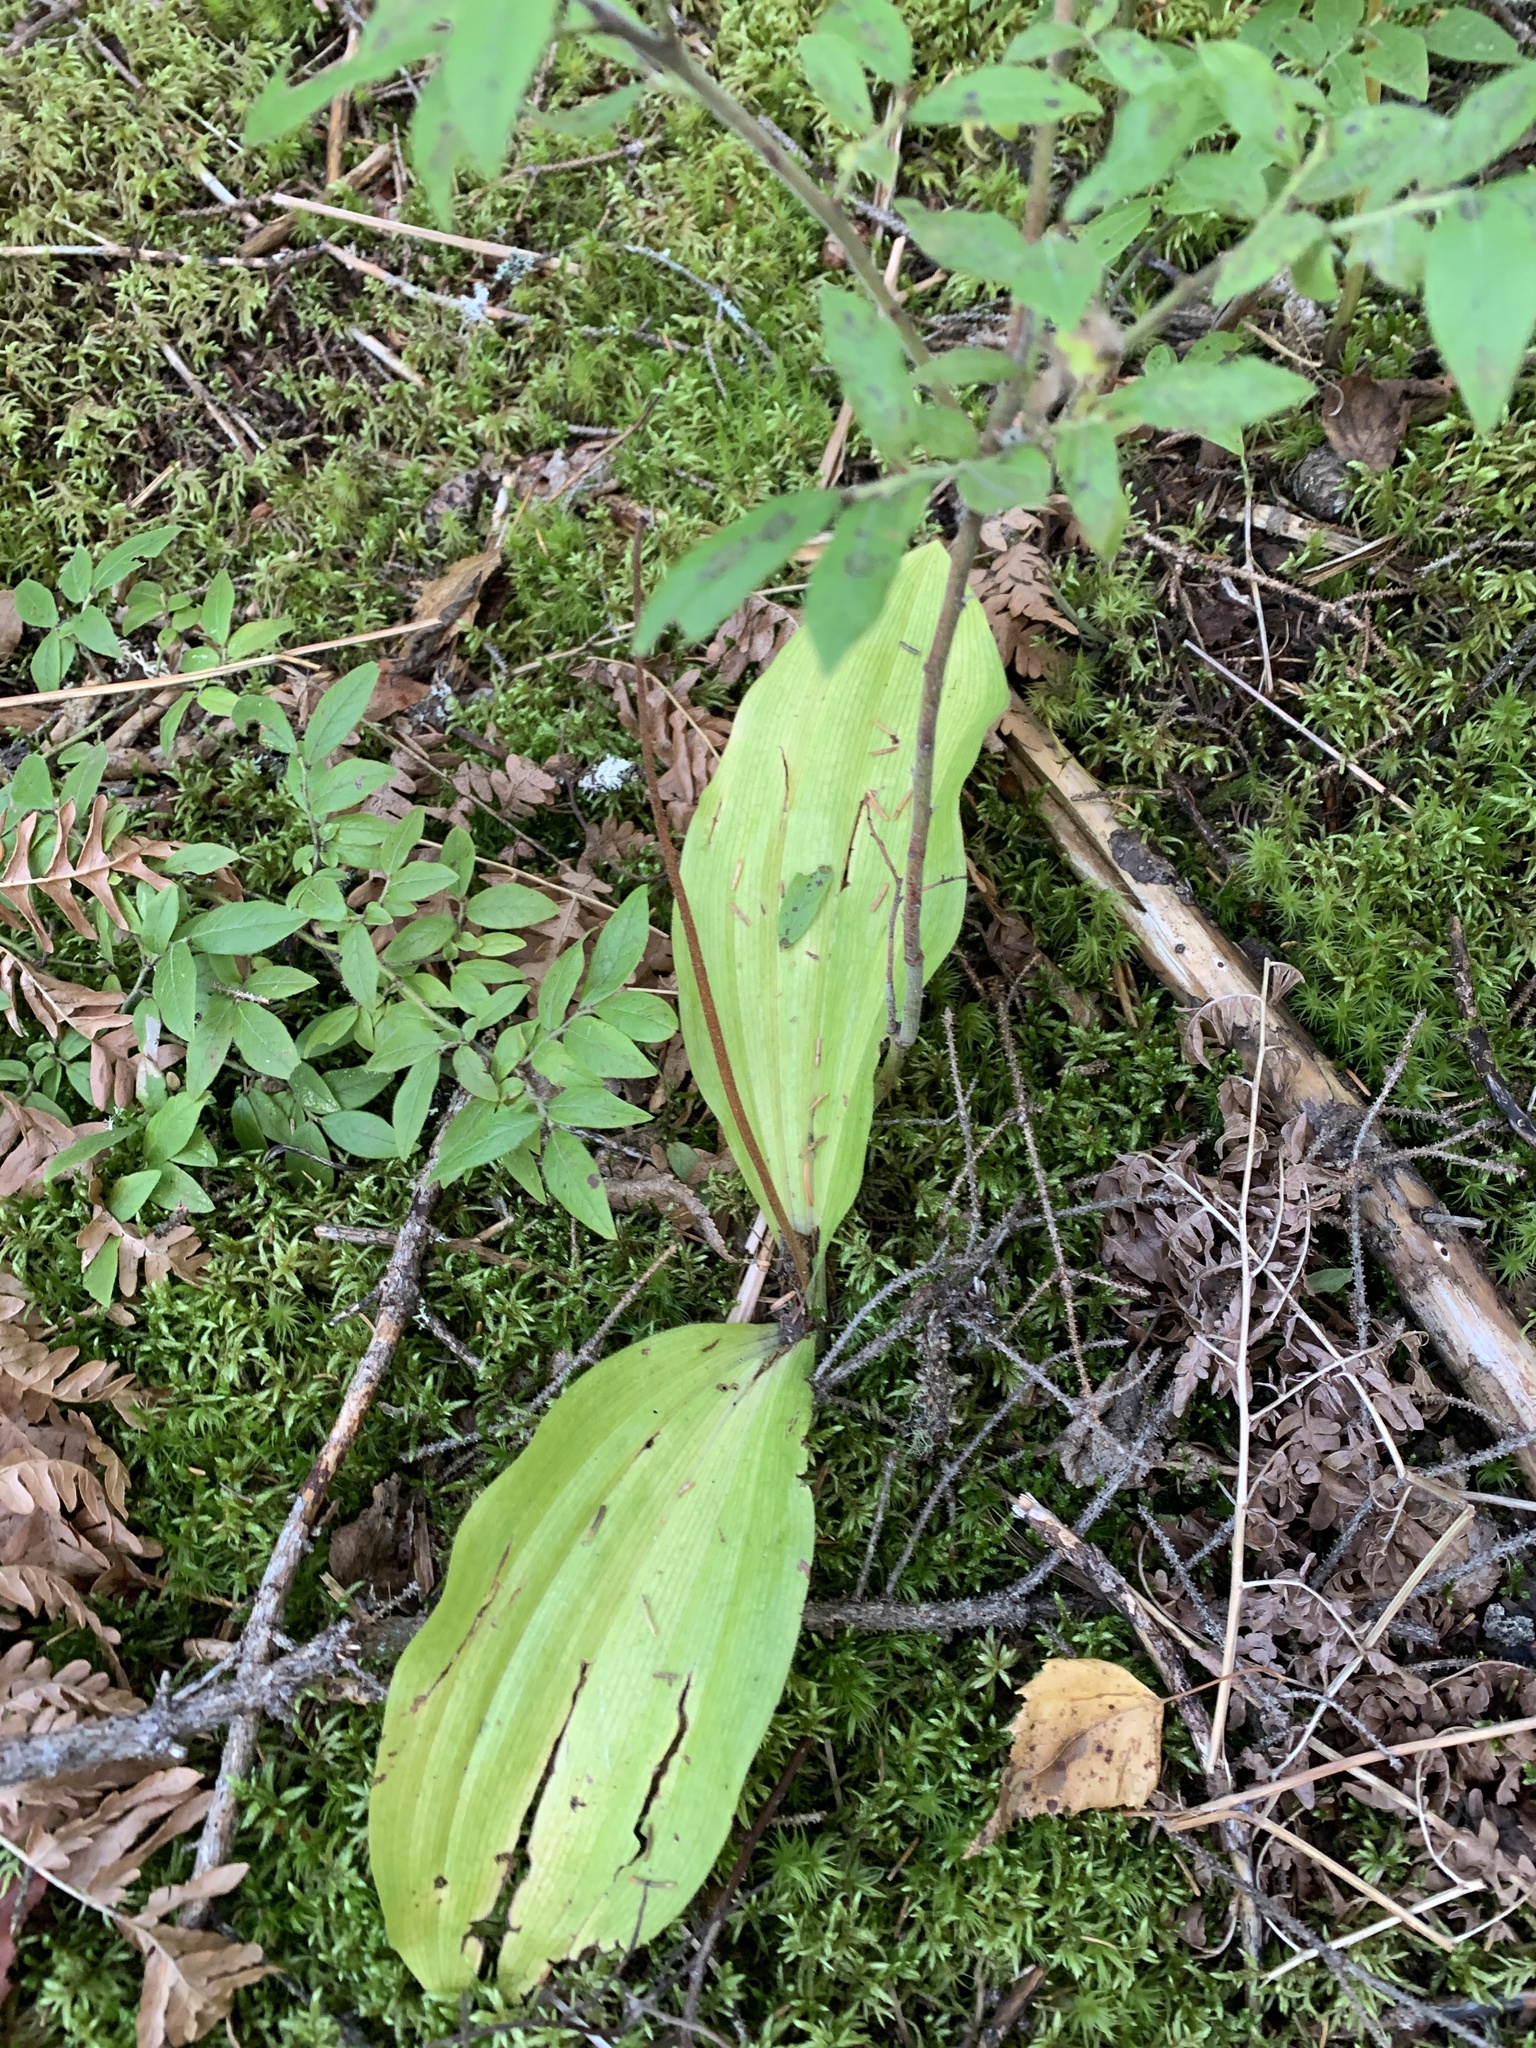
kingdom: Plantae
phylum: Tracheophyta
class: Liliopsida
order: Asparagales
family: Orchidaceae
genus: Cypripedium
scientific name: Cypripedium acaule
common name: Pink lady's-slipper
